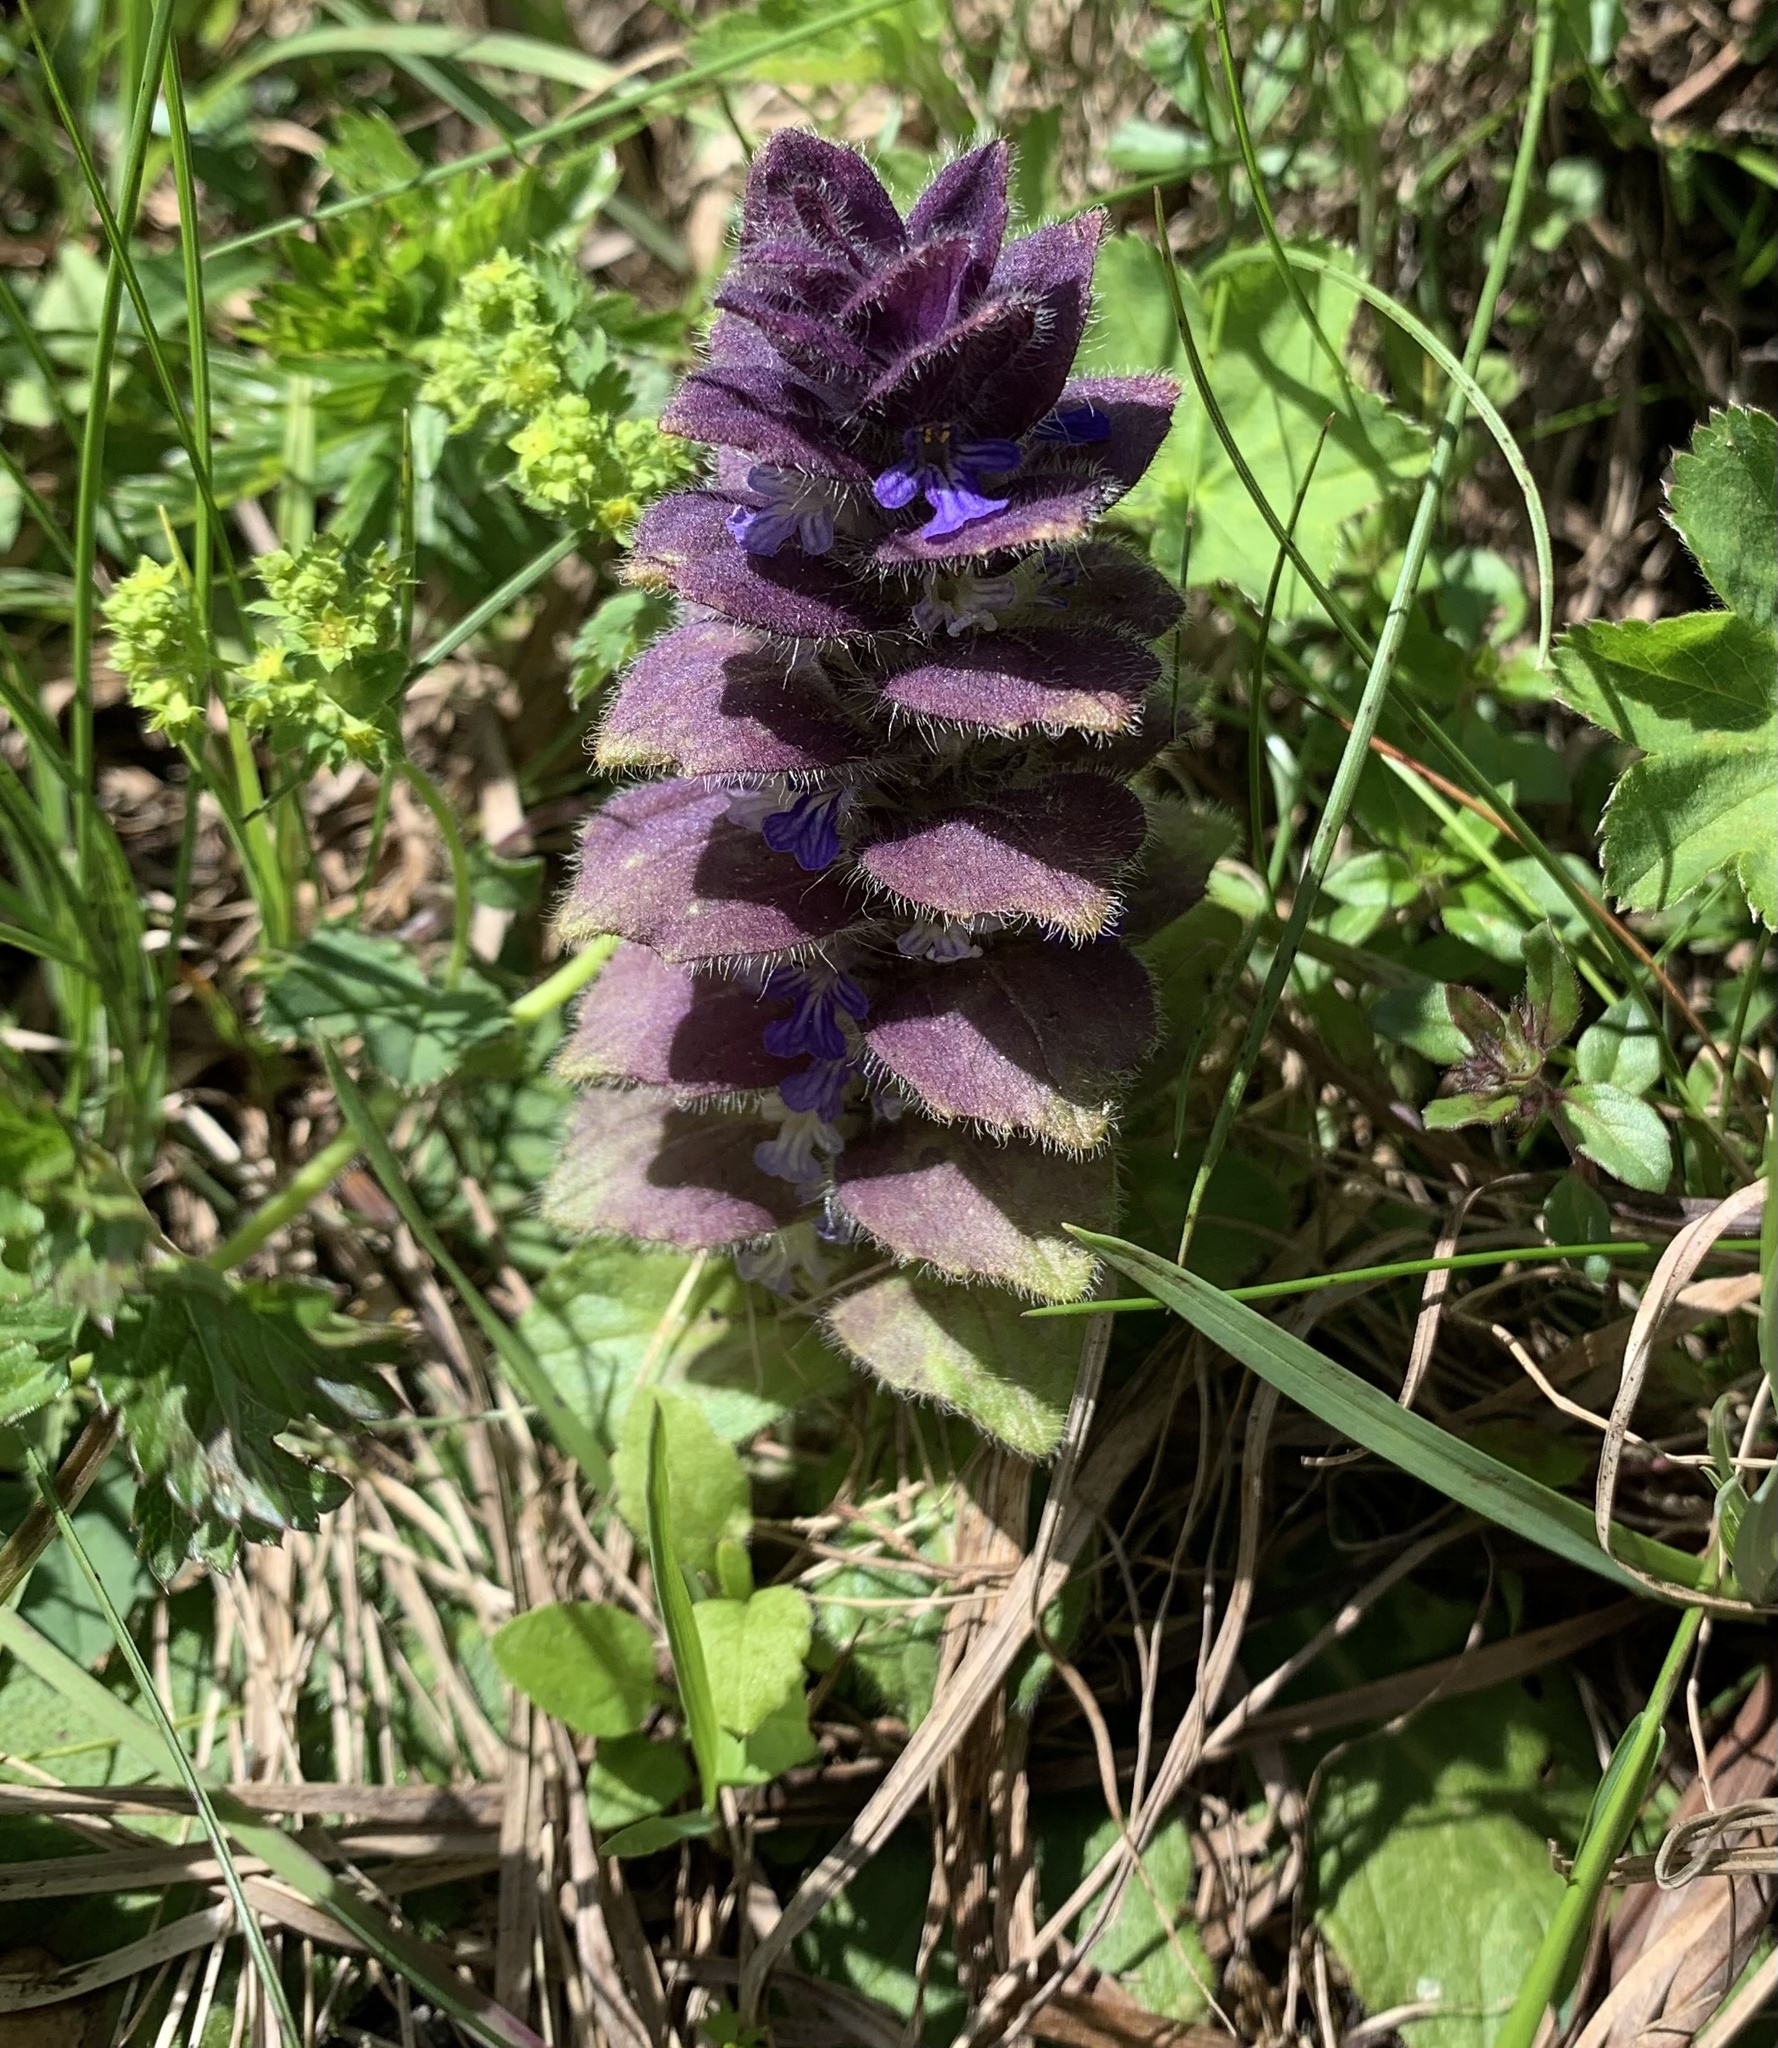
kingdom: Plantae
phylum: Tracheophyta
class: Magnoliopsida
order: Lamiales
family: Lamiaceae
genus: Ajuga
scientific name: Ajuga pyramidalis
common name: Pyramid bugle
